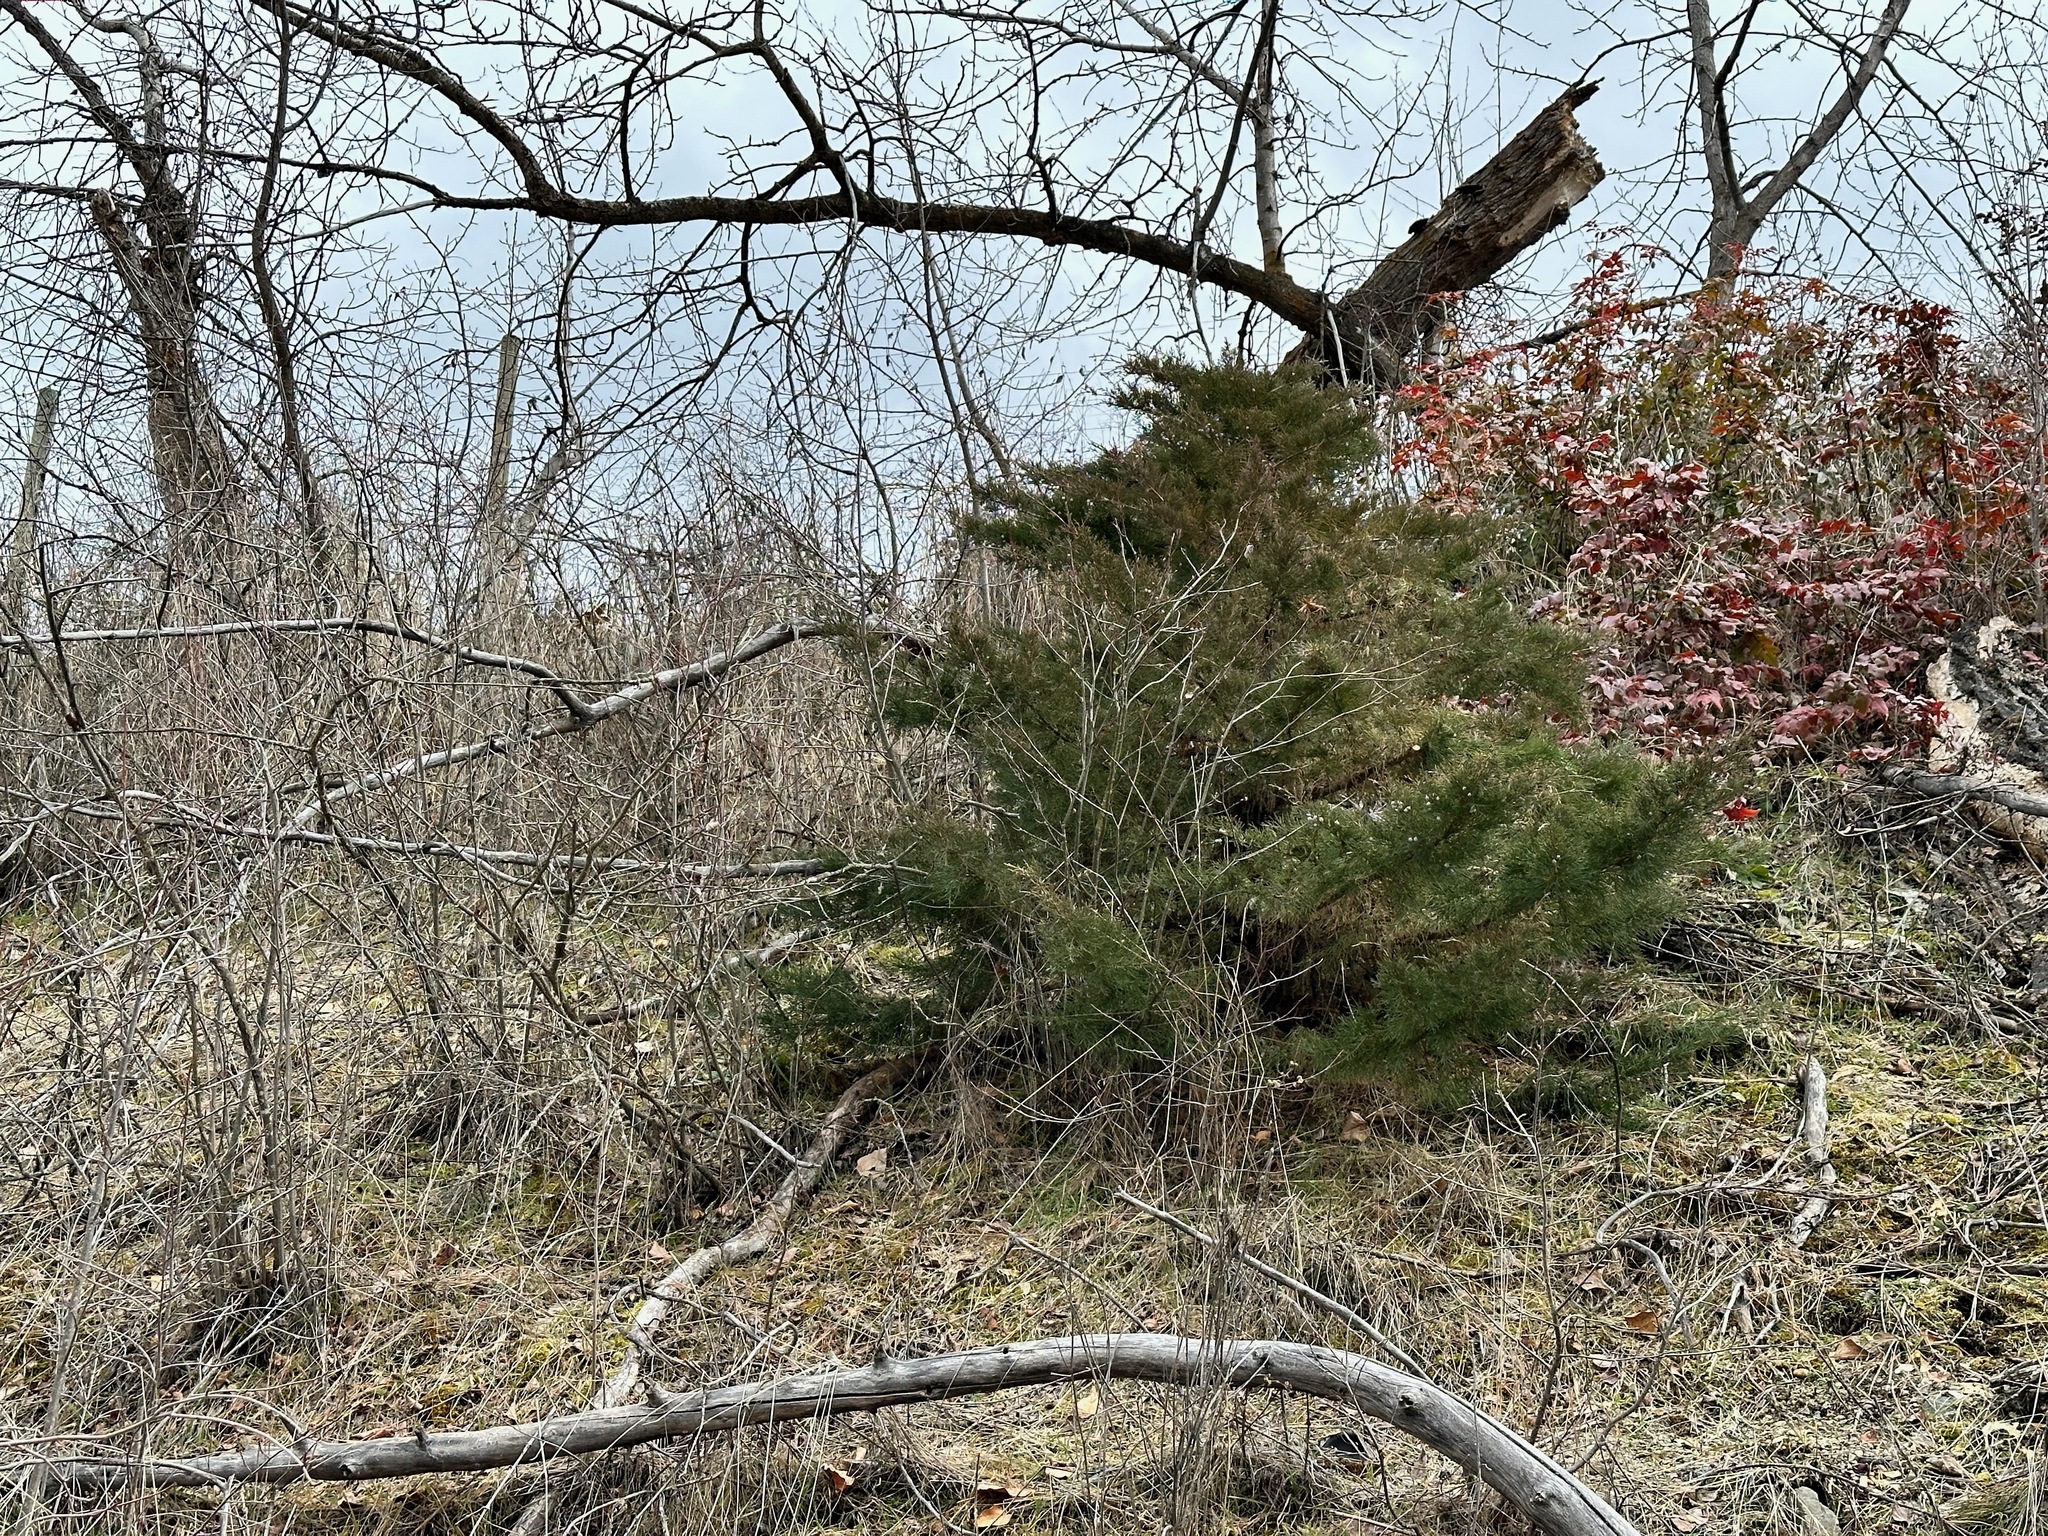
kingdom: Plantae
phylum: Tracheophyta
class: Pinopsida
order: Pinales
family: Cupressaceae
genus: Juniperus
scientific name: Juniperus scopulorum
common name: Rocky mountain juniper
